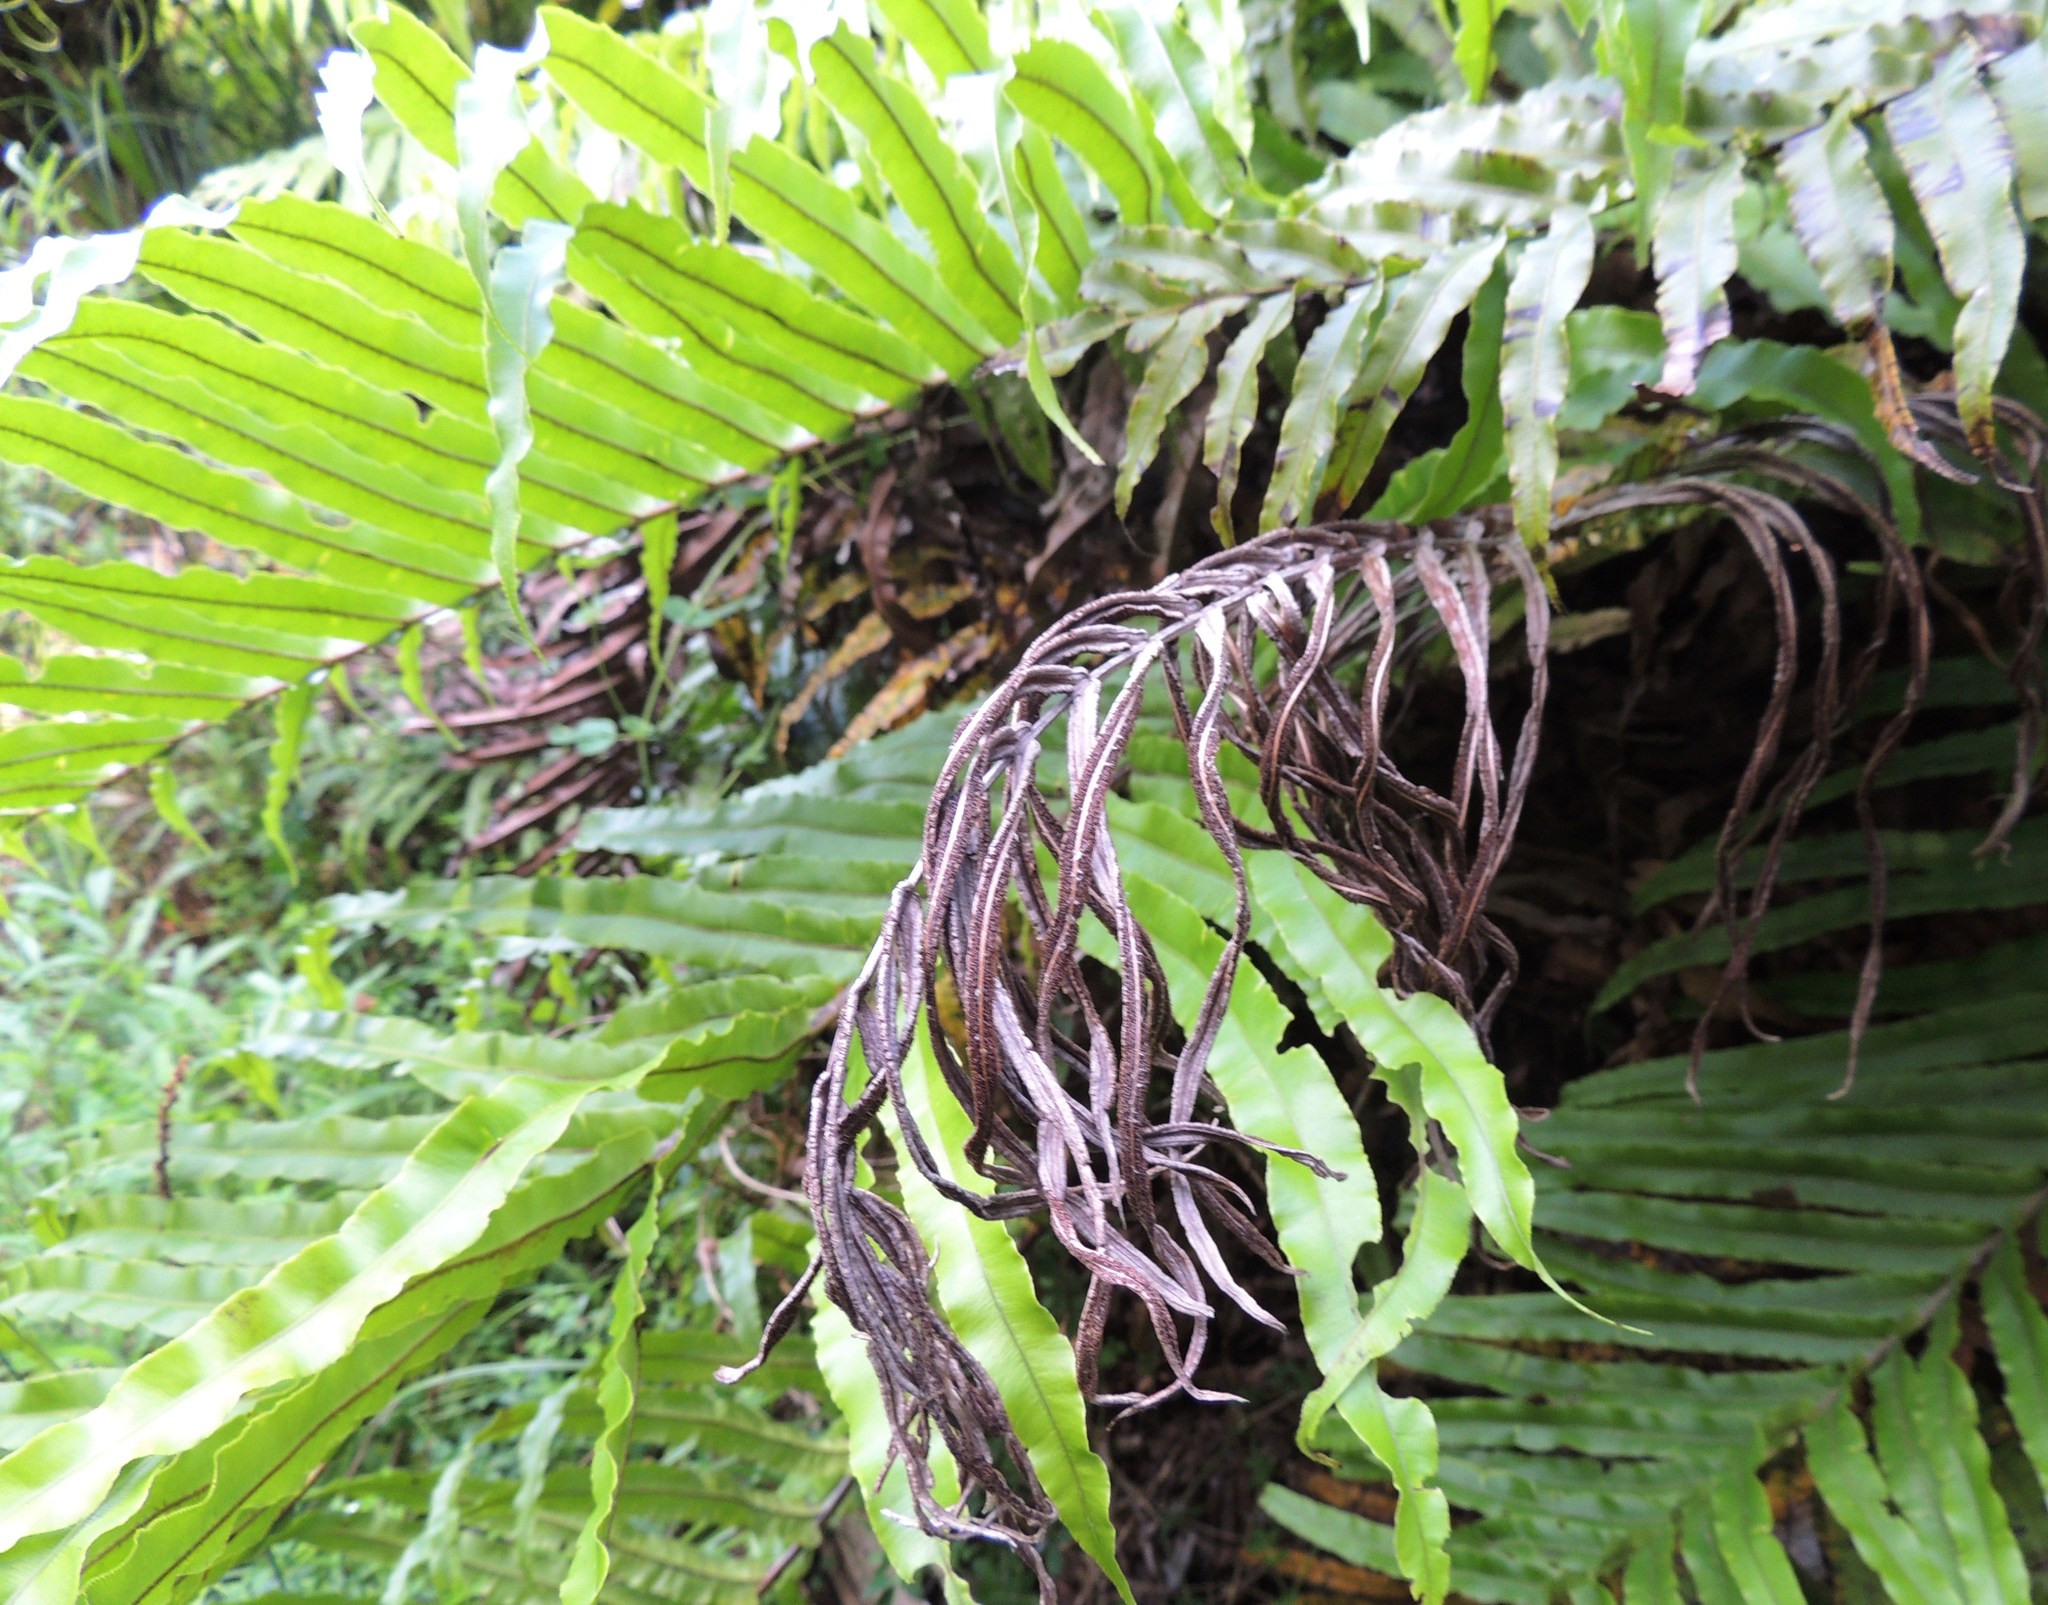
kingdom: Plantae
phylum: Tracheophyta
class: Polypodiopsida
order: Polypodiales
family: Blechnaceae
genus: Parablechnum
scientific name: Parablechnum novae-zelandiae
